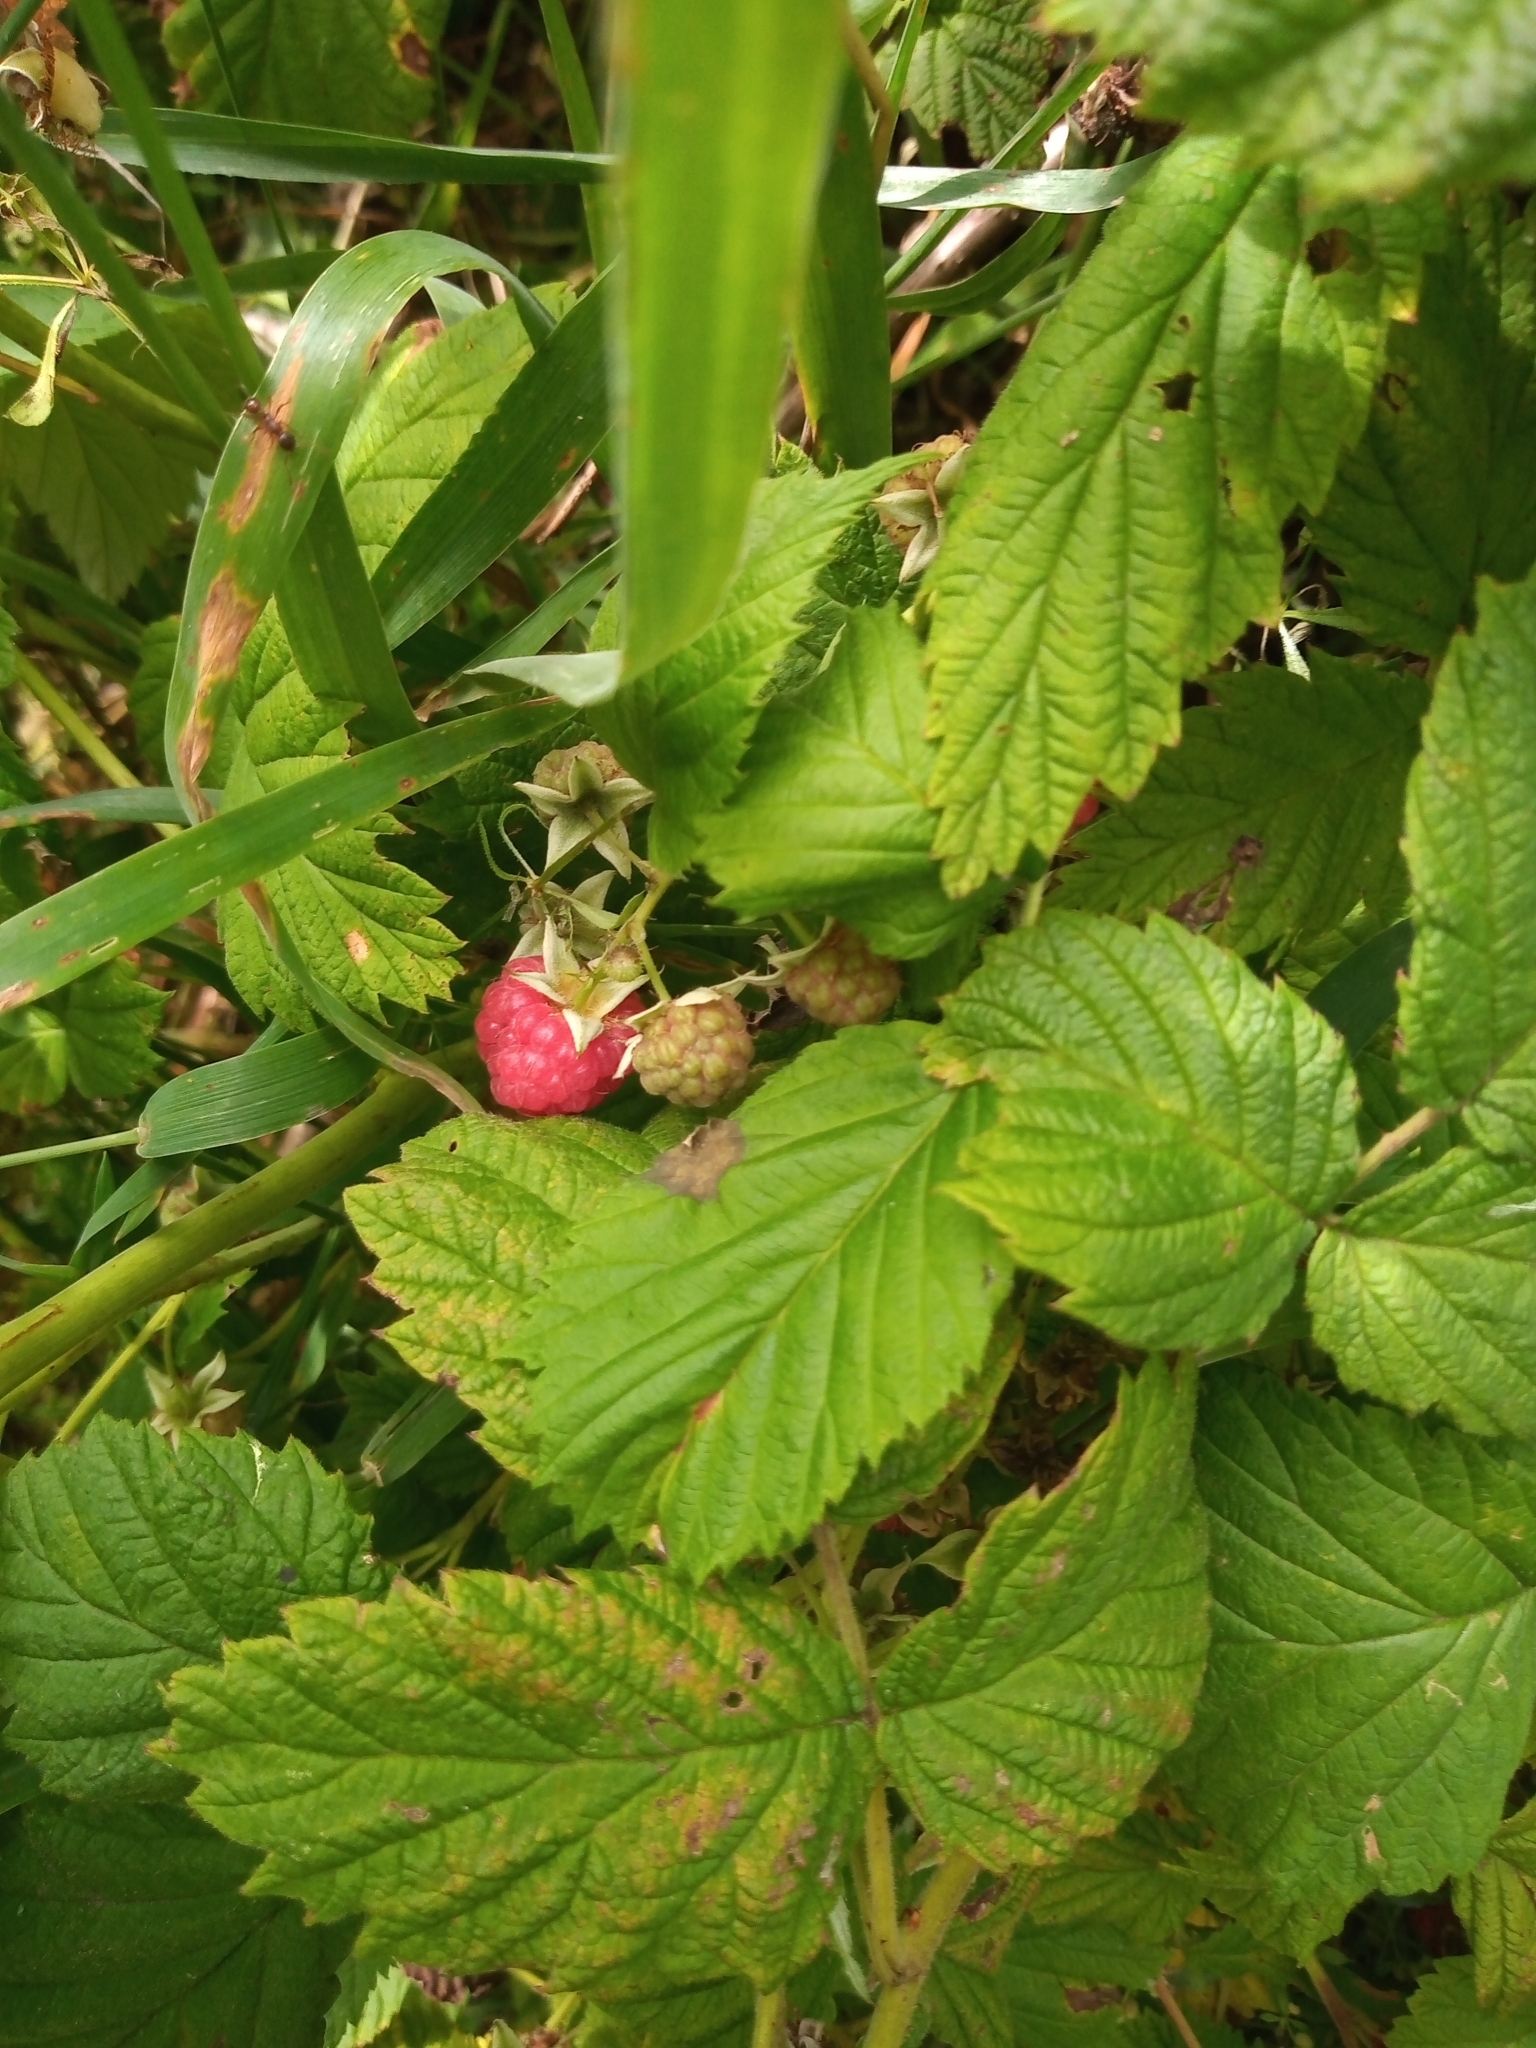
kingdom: Plantae
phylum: Tracheophyta
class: Magnoliopsida
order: Rosales
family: Rosaceae
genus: Rubus
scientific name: Rubus idaeus
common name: Raspberry
